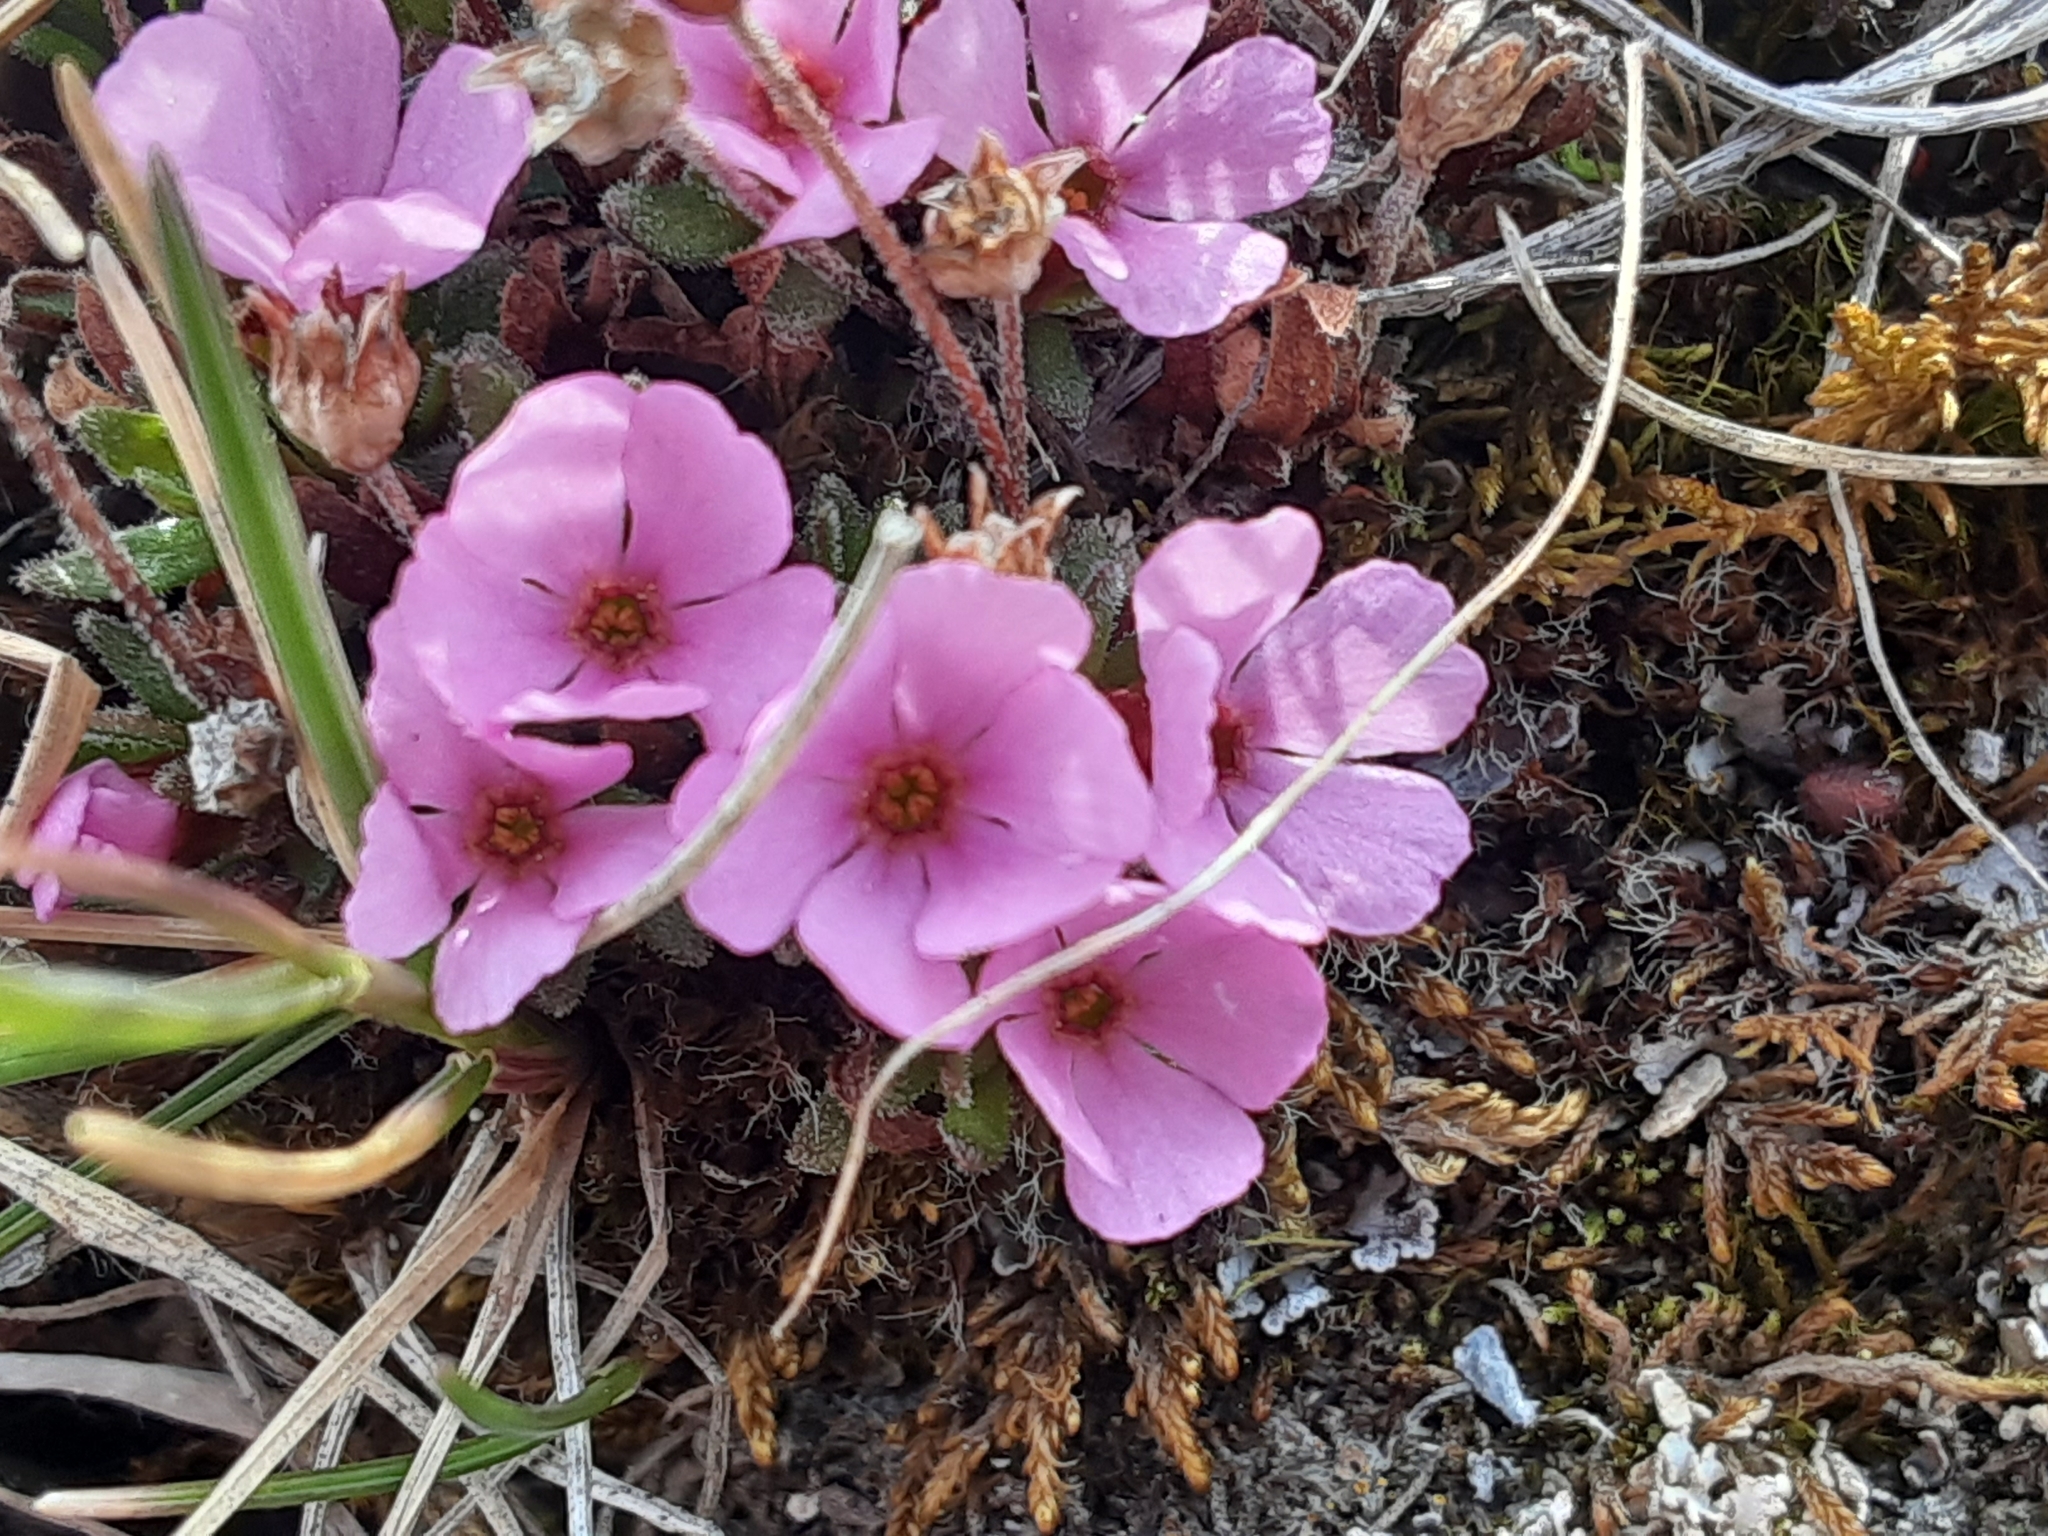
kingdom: Plantae
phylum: Tracheophyta
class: Magnoliopsida
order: Ericales
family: Primulaceae
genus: Androsace
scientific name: Androsace constancei
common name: Gorman's dwarf-primrose
